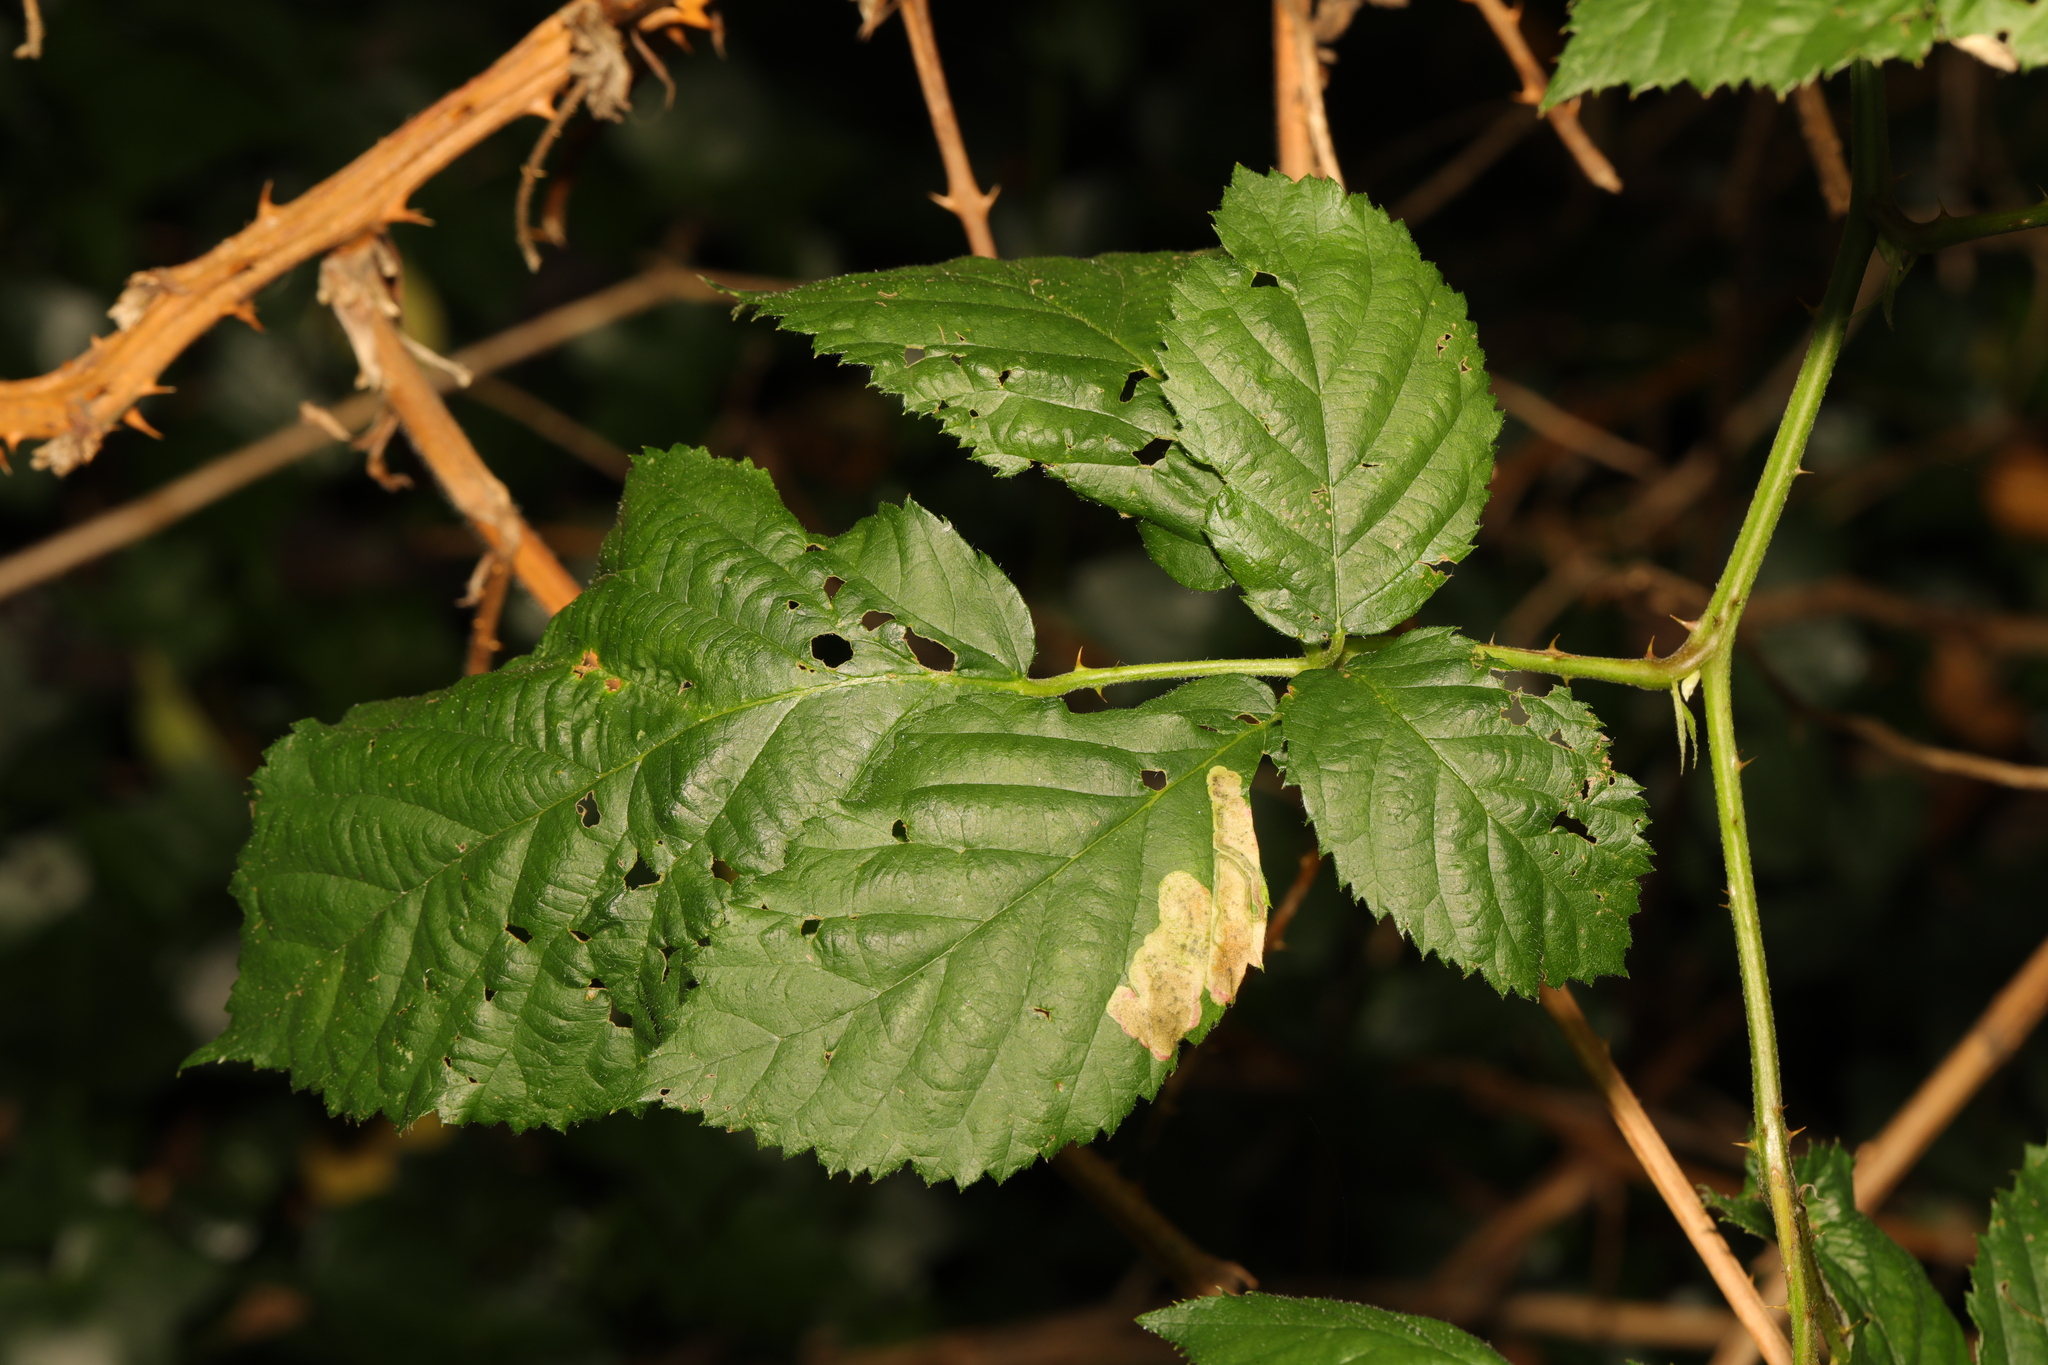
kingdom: Plantae
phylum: Tracheophyta
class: Magnoliopsida
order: Rosales
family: Rosaceae
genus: Rubus
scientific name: Rubus fruticosus
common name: Blackberry, bramble
